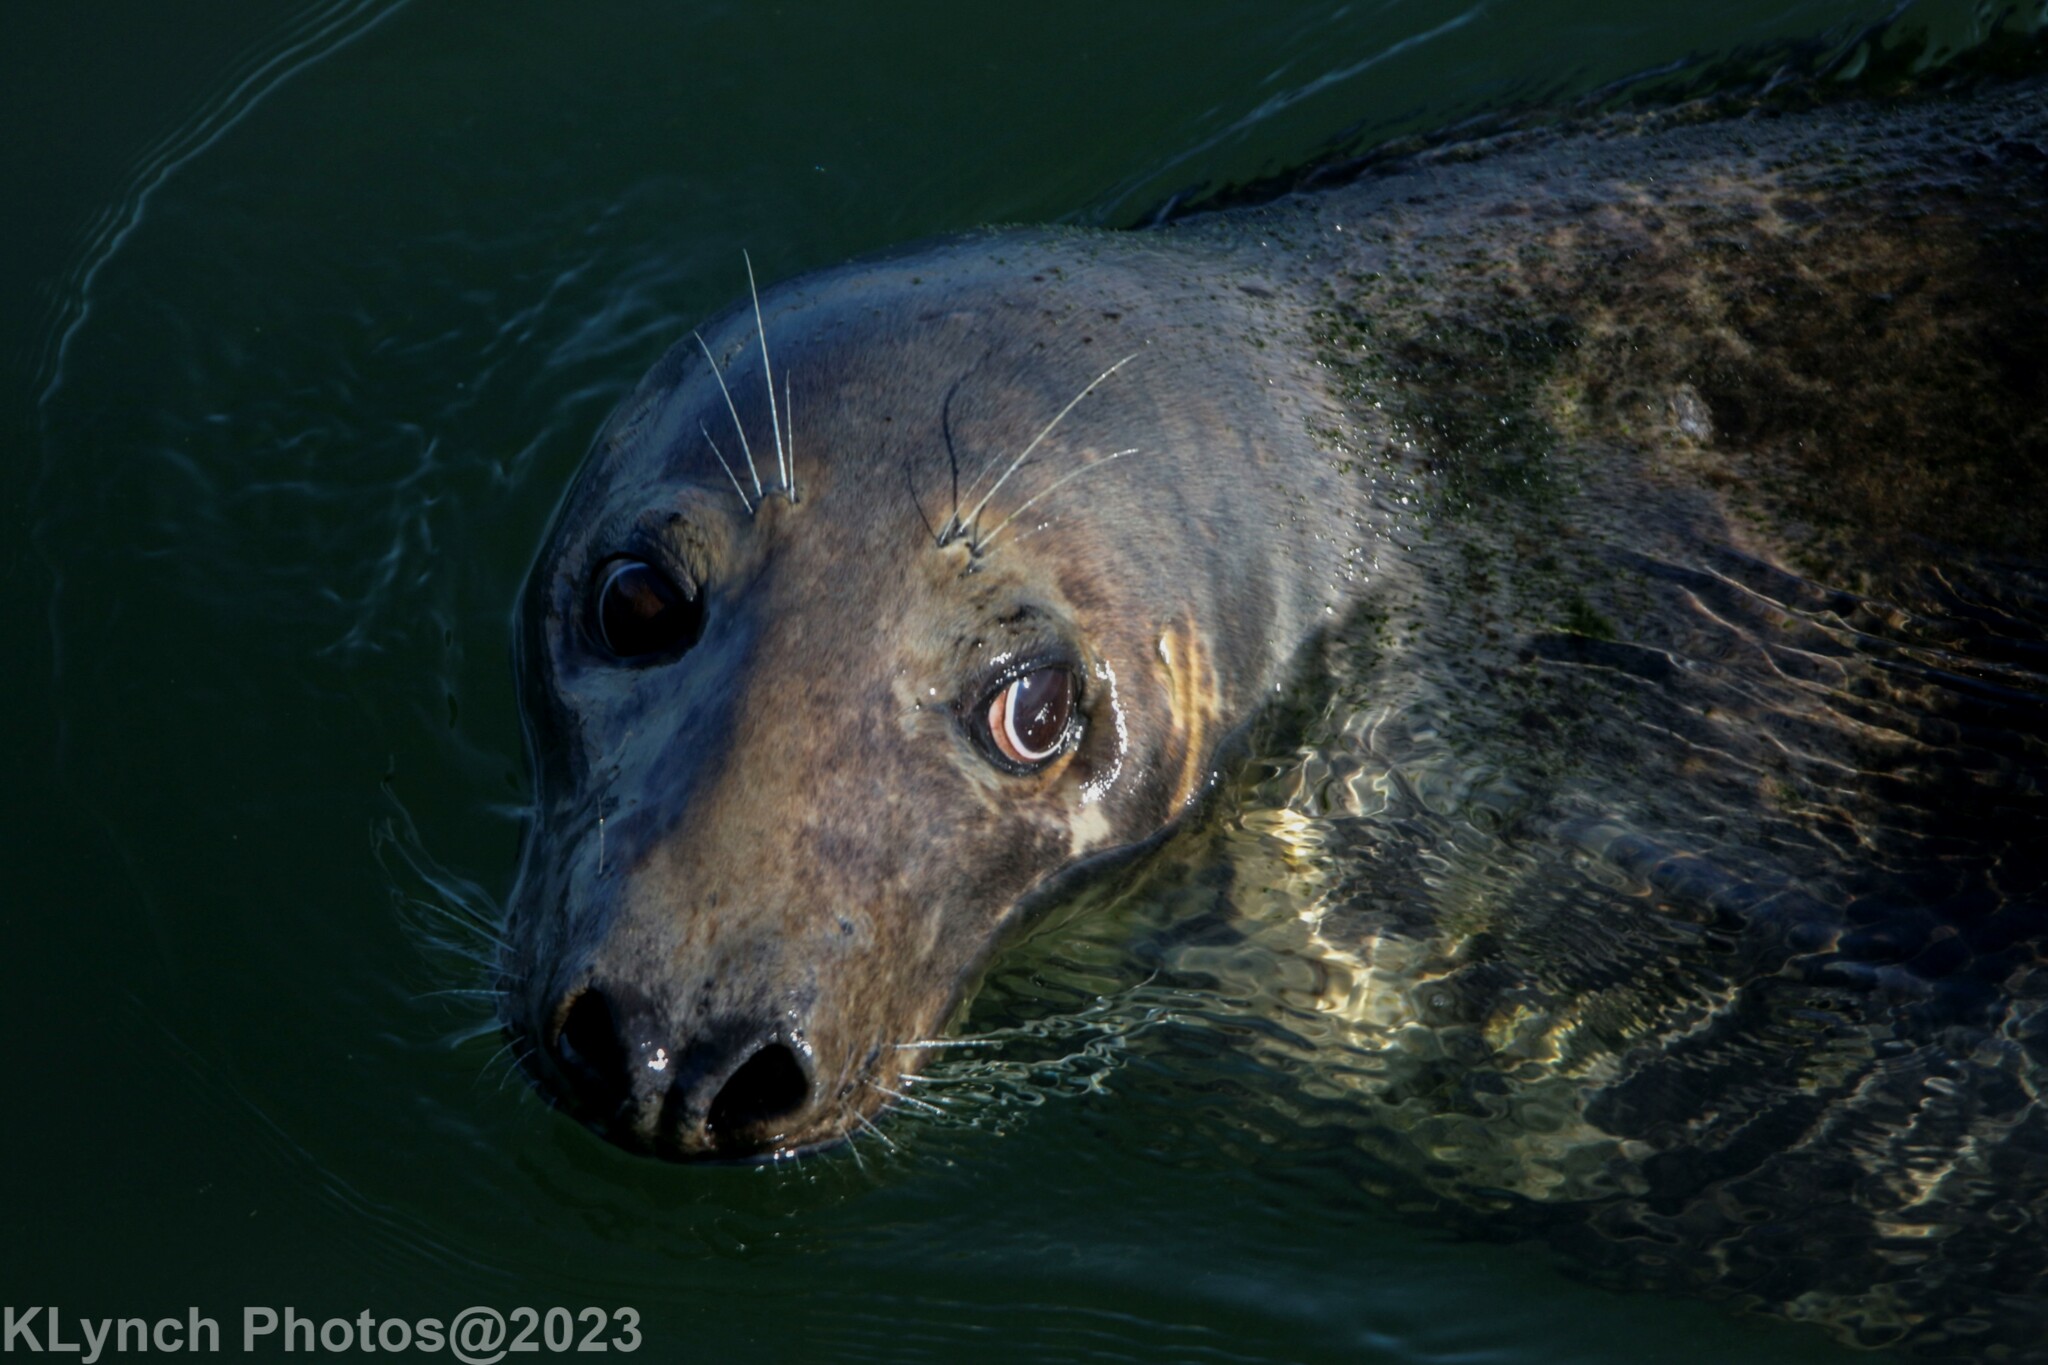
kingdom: Animalia
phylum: Chordata
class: Mammalia
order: Carnivora
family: Phocidae
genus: Halichoerus
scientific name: Halichoerus grypus
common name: Grey seal
